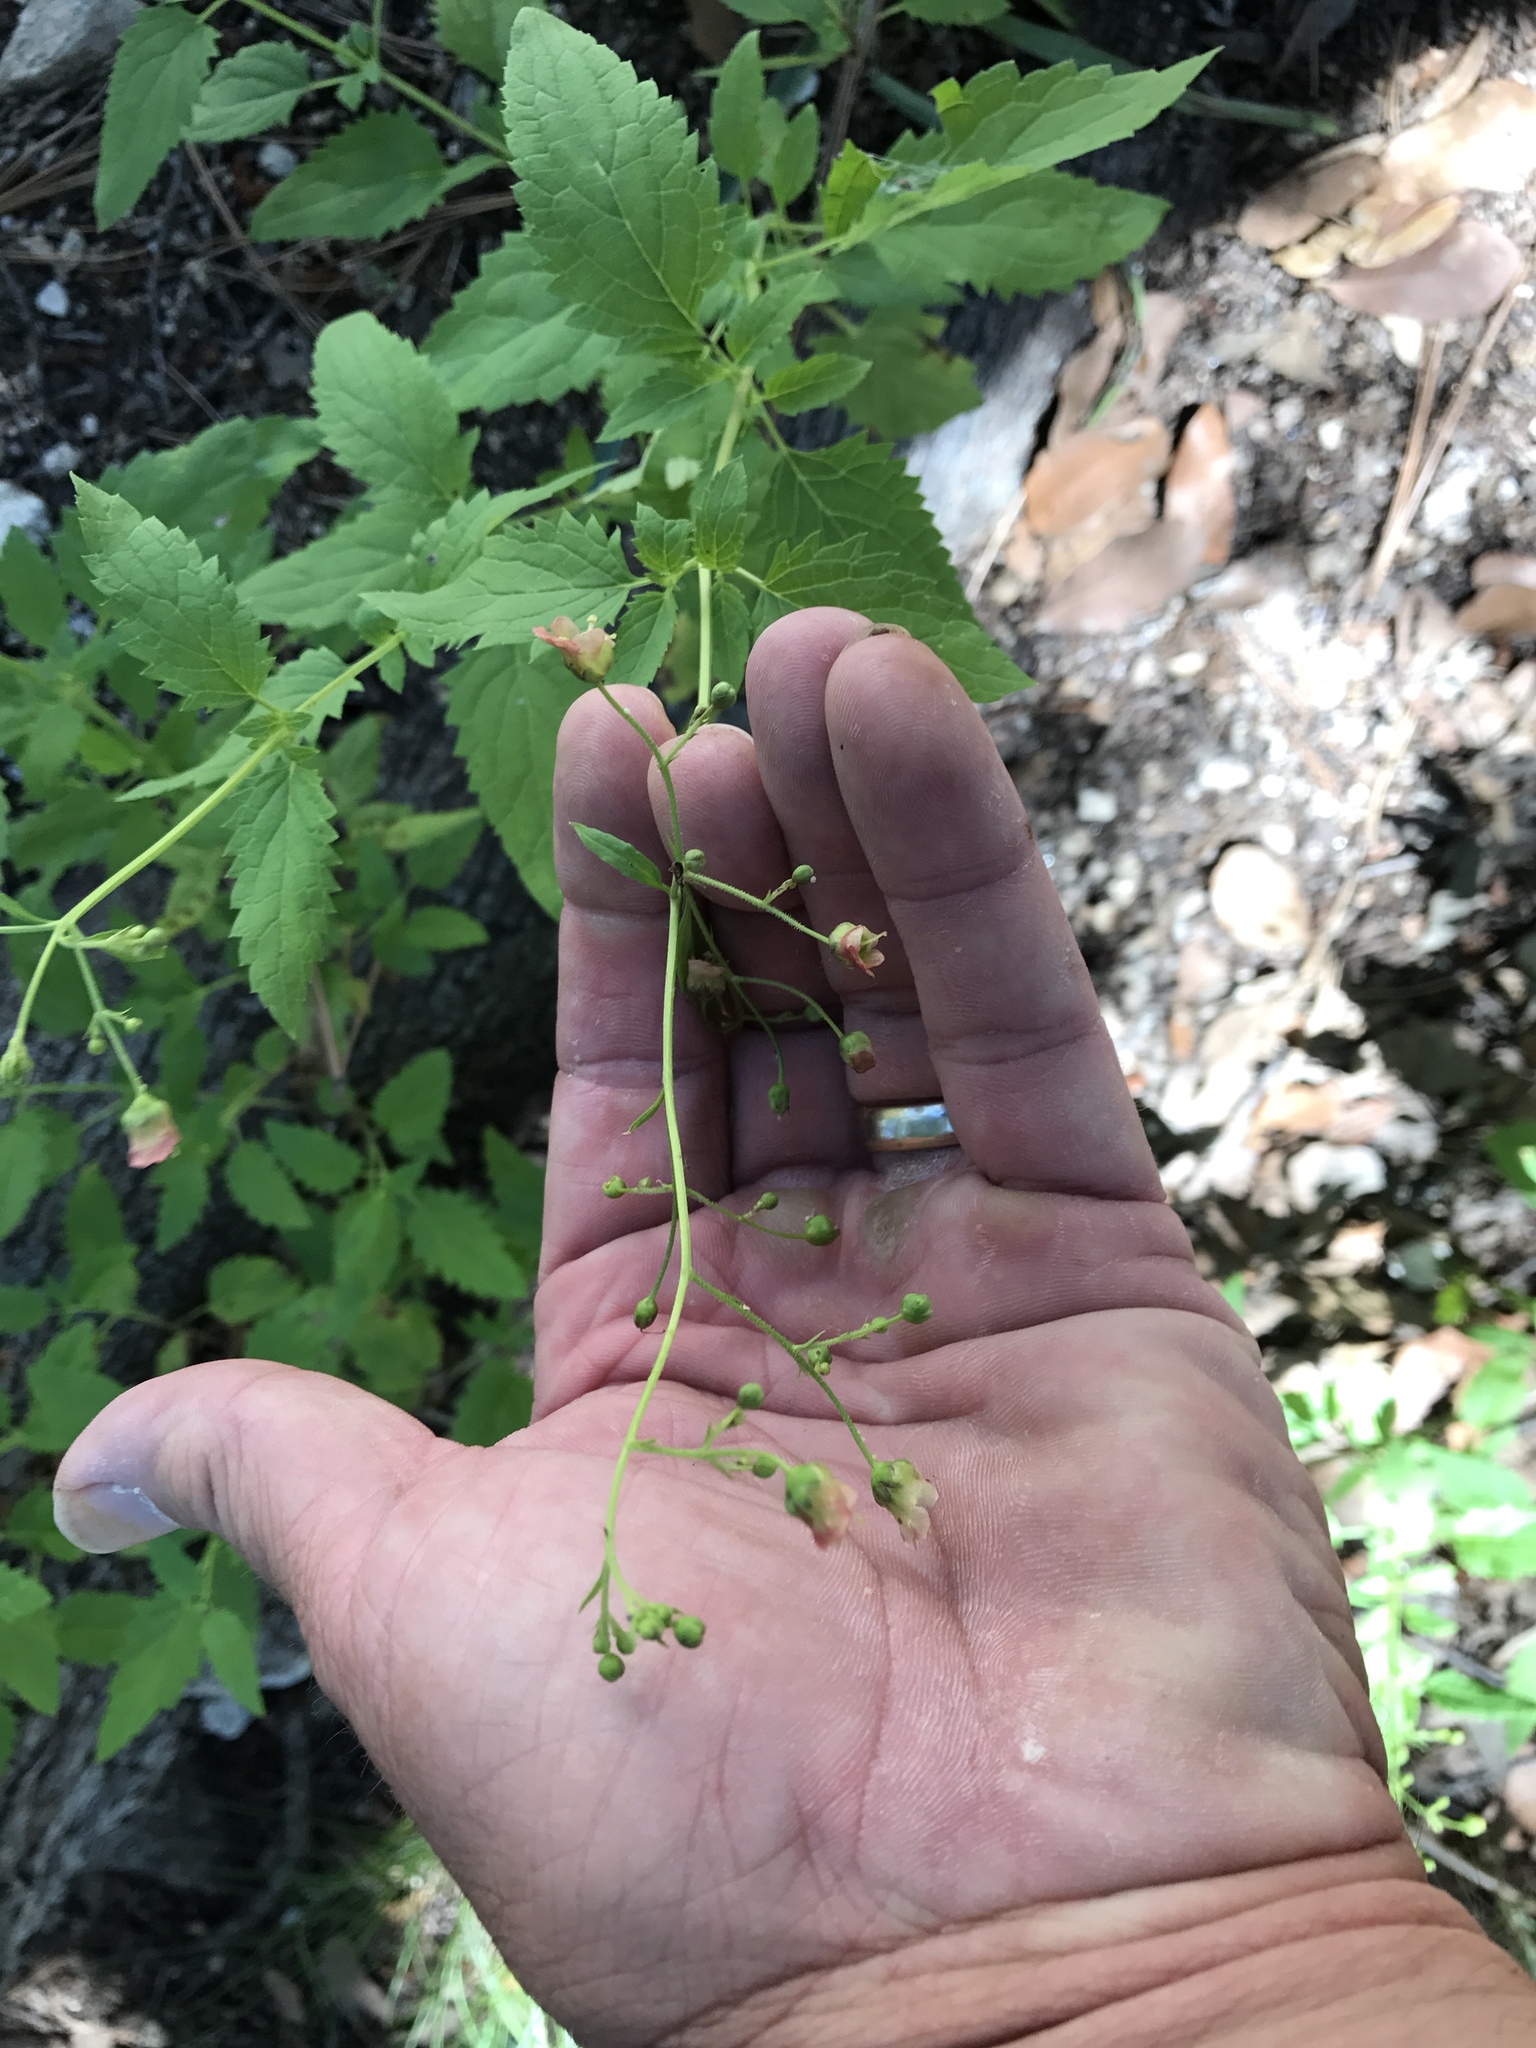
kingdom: Plantae
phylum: Tracheophyta
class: Magnoliopsida
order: Lamiales
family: Scrophulariaceae
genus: Scrophularia
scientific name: Scrophularia parviflora
